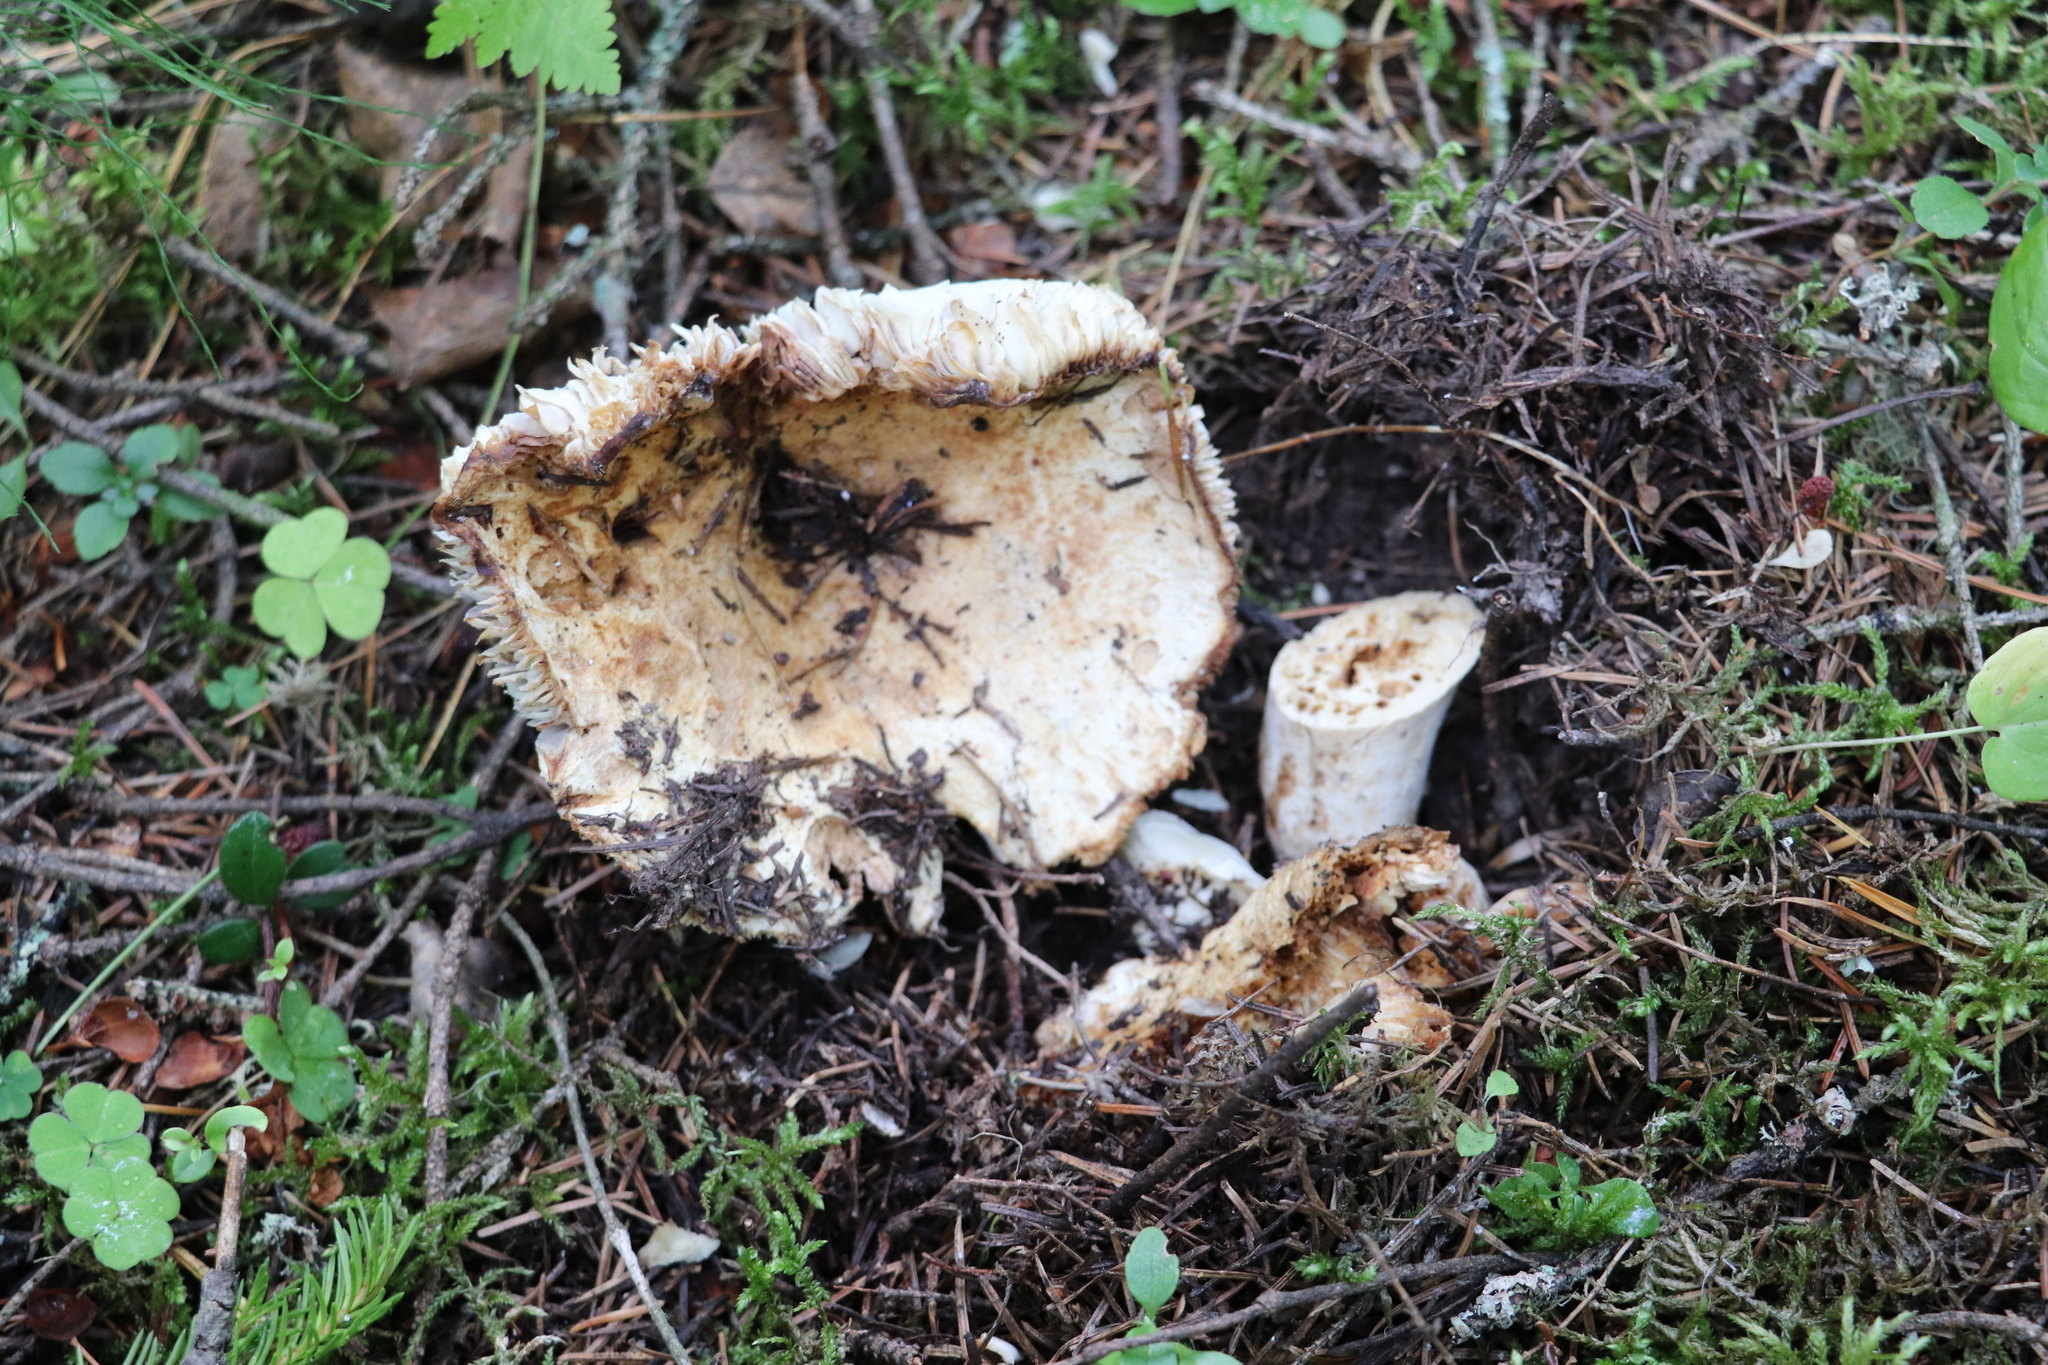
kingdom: Fungi
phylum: Basidiomycota
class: Agaricomycetes
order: Russulales
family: Russulaceae
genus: Russula
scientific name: Russula delica
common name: Milk white brittlegill
